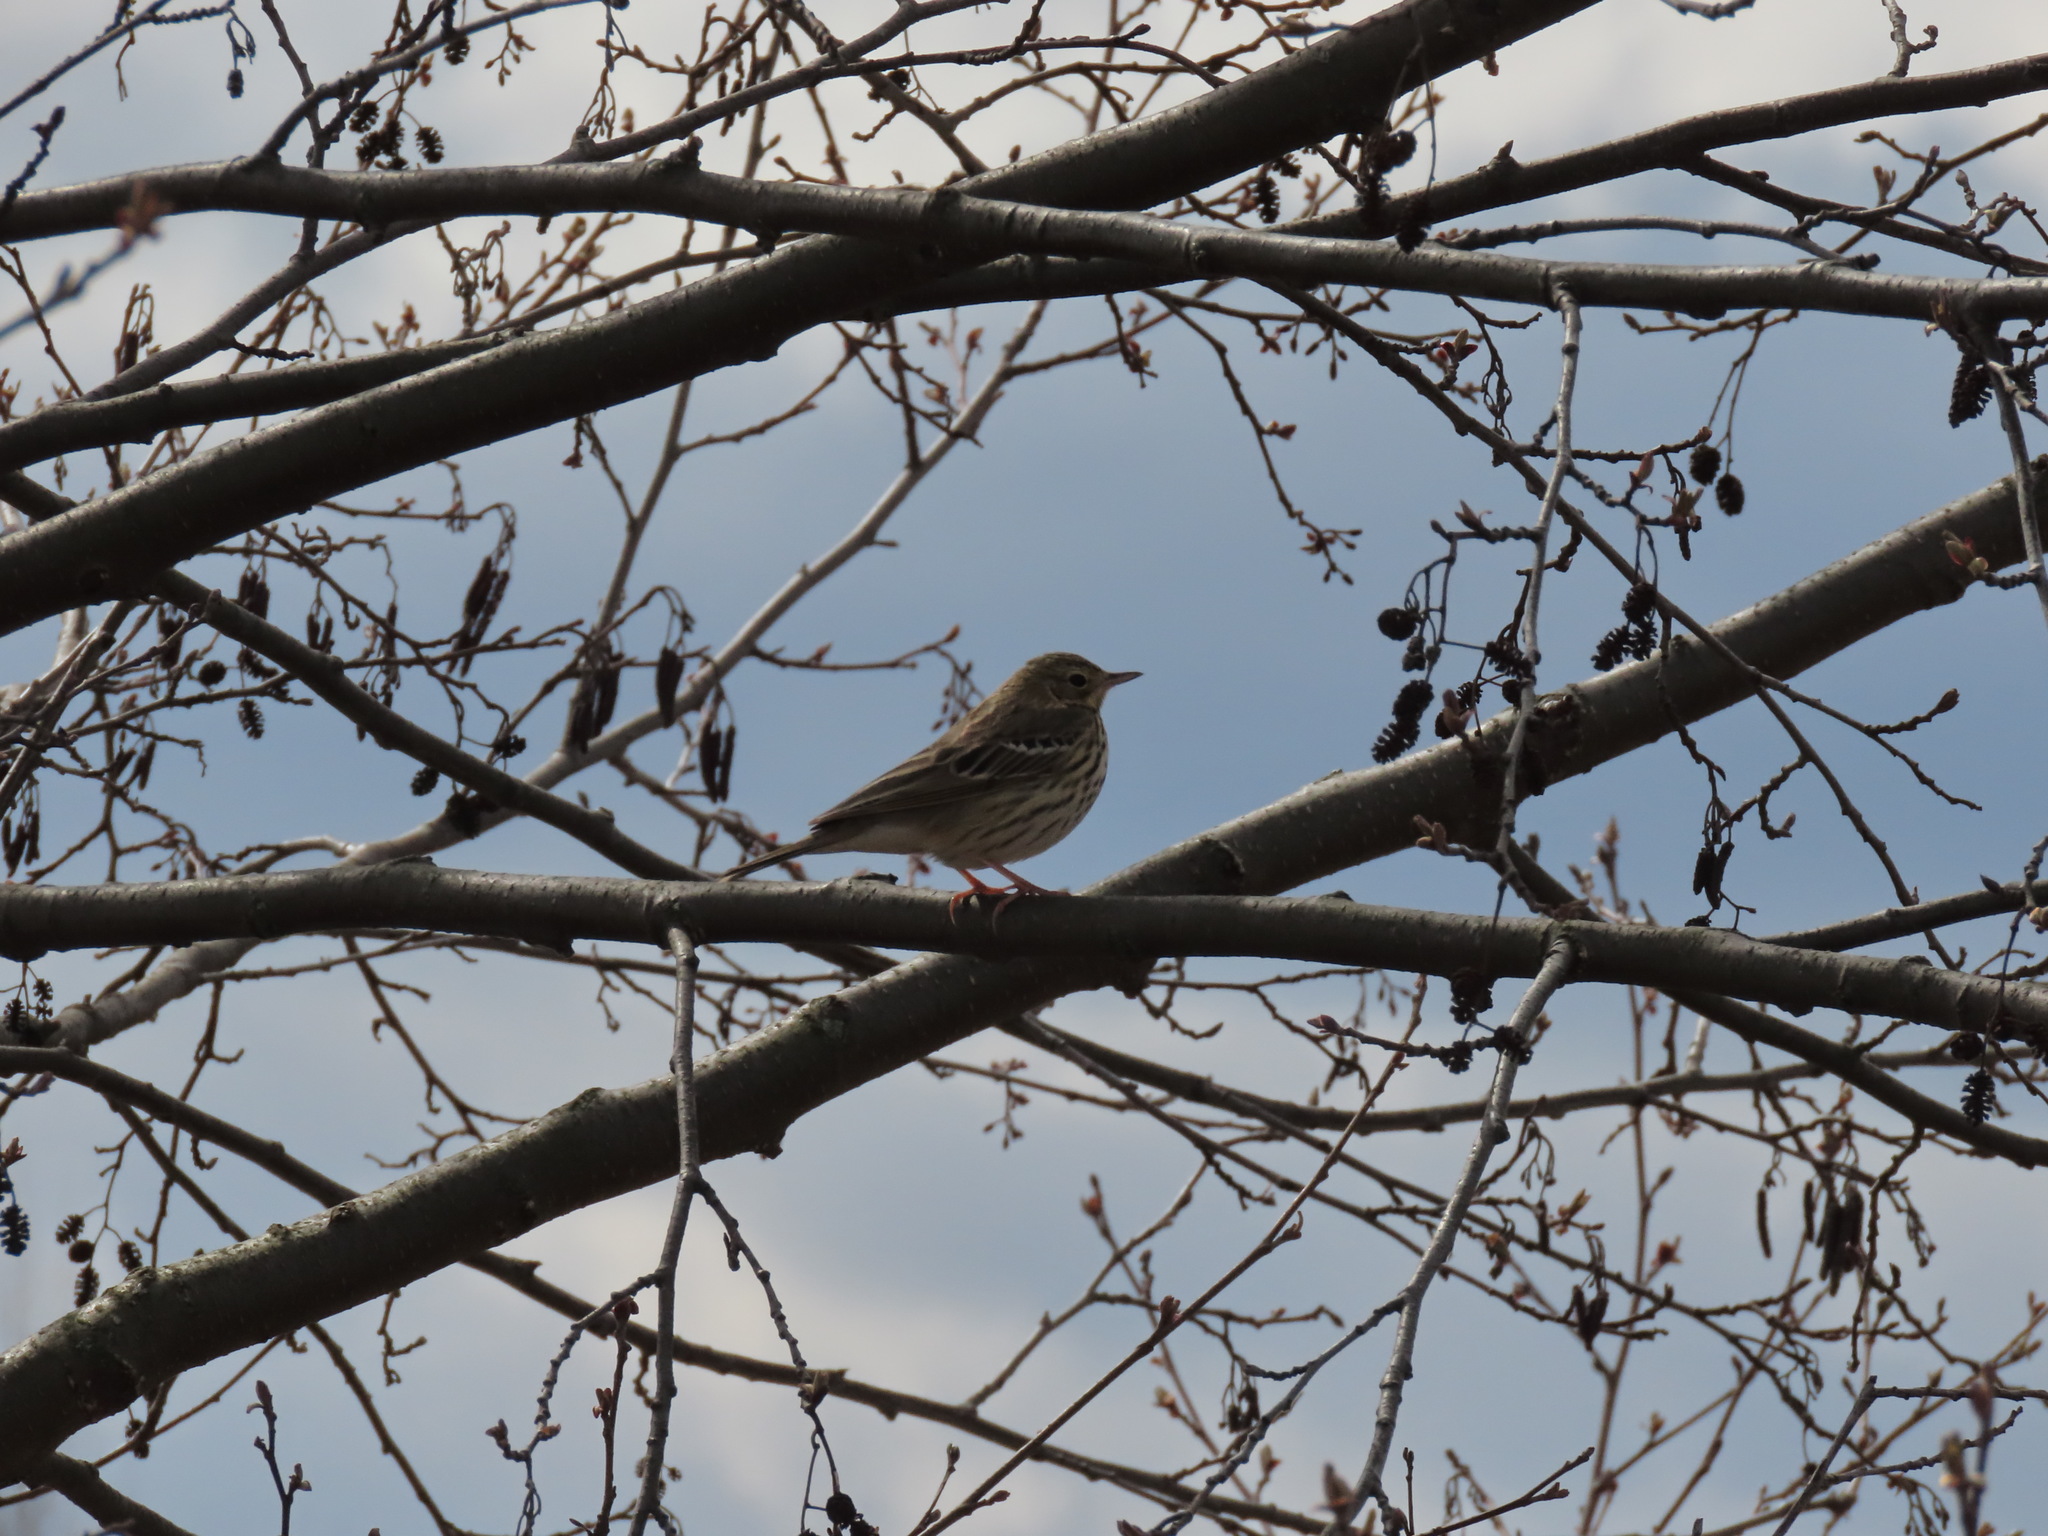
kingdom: Animalia
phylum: Chordata
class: Aves
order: Passeriformes
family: Motacillidae
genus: Anthus
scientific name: Anthus trivialis
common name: Tree pipit
